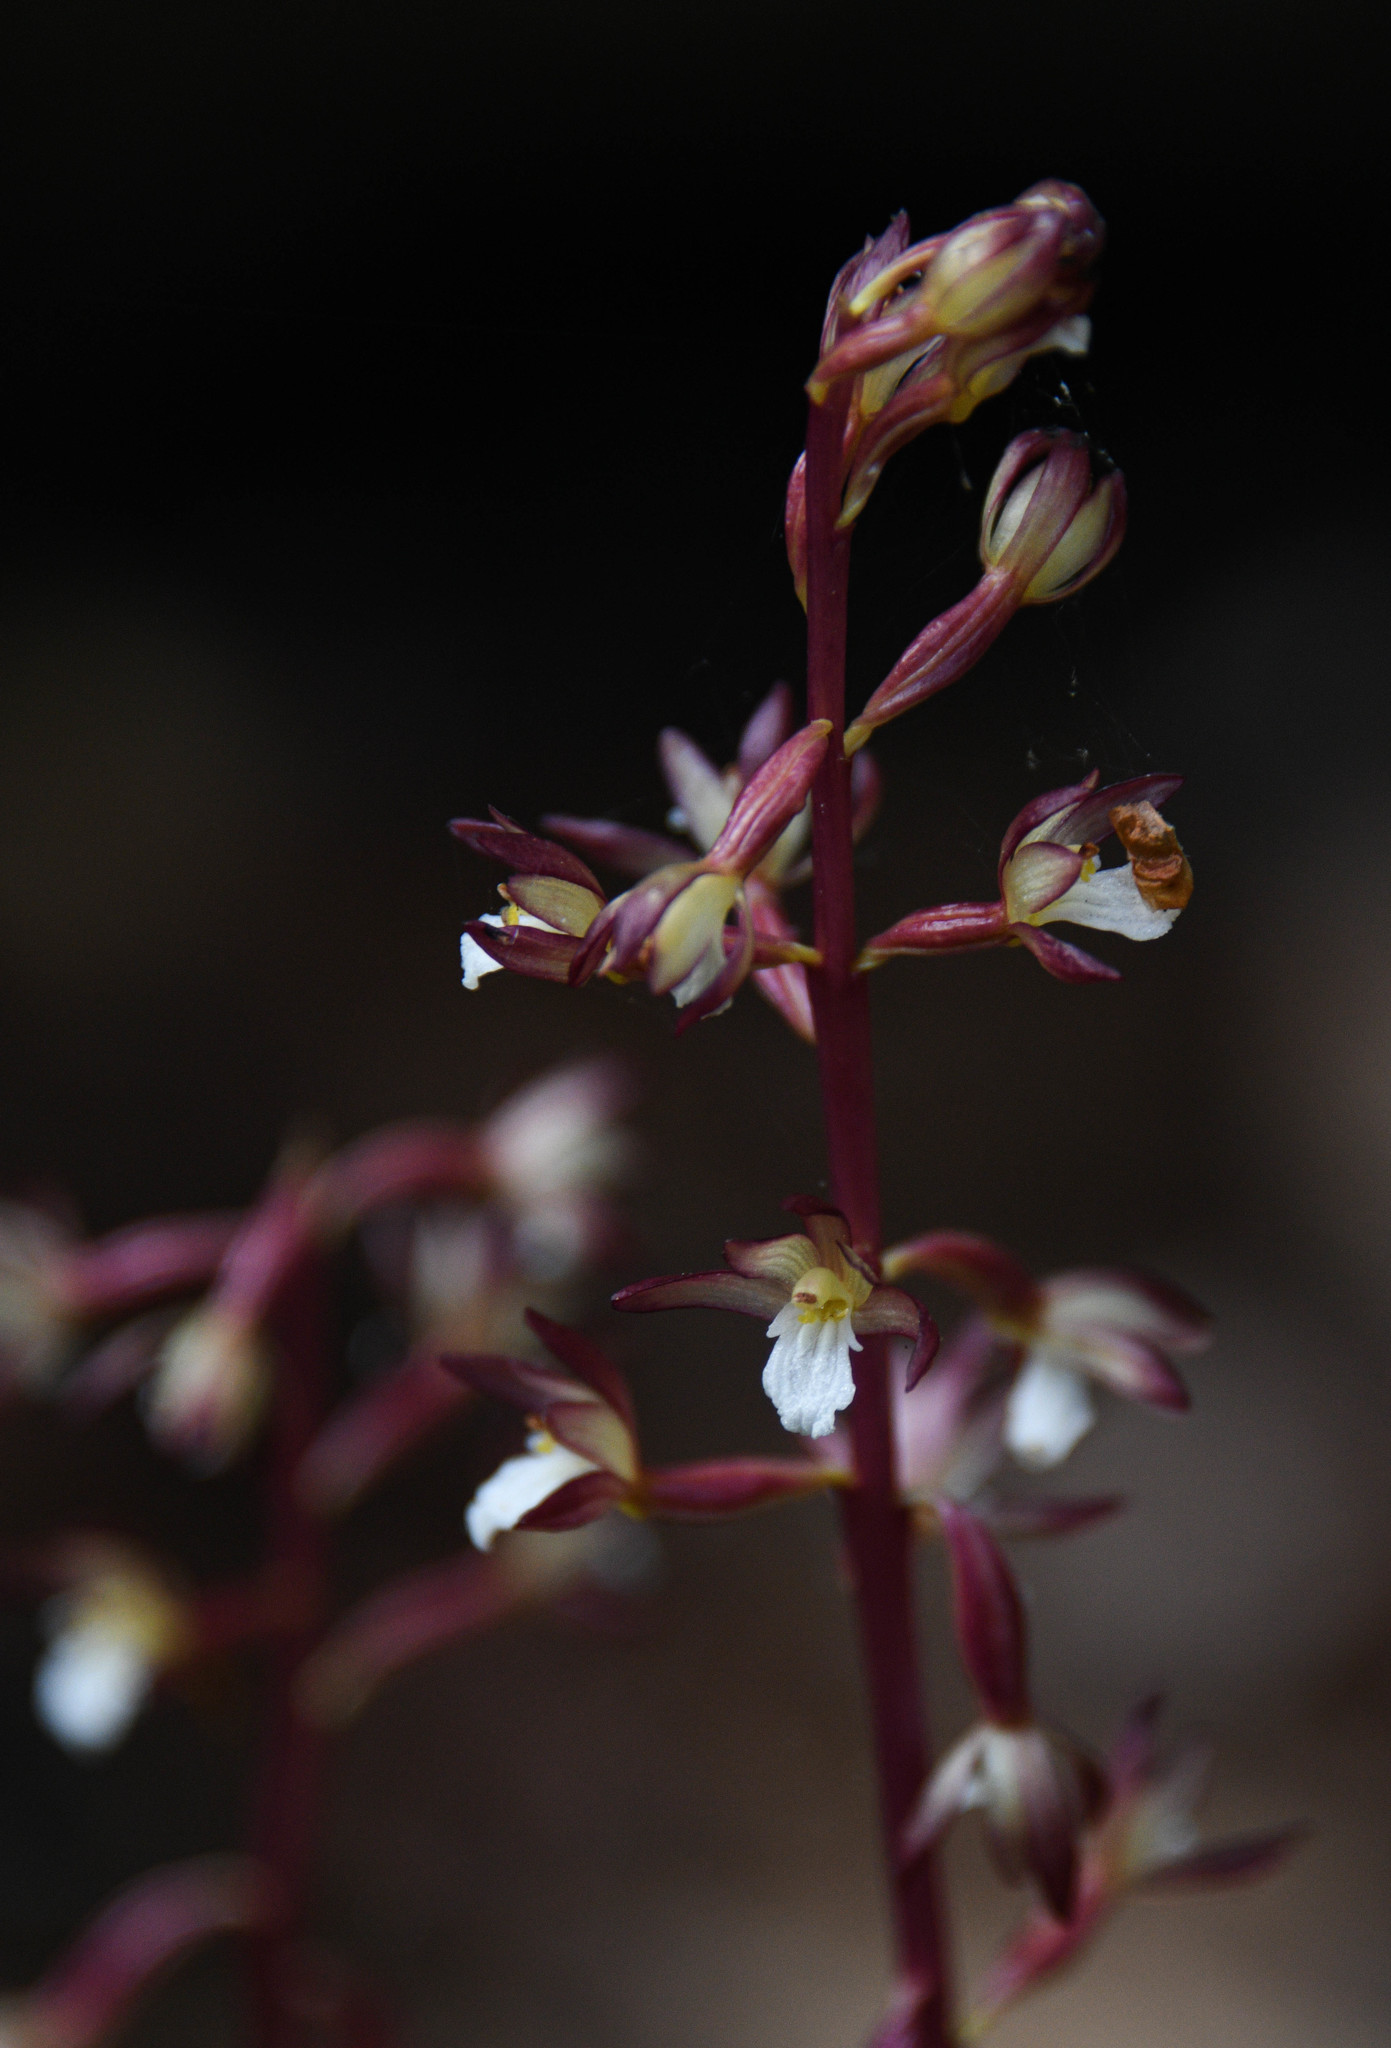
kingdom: Plantae
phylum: Tracheophyta
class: Liliopsida
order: Asparagales
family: Orchidaceae
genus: Corallorhiza
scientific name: Corallorhiza maculata
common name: Spotted coralroot
